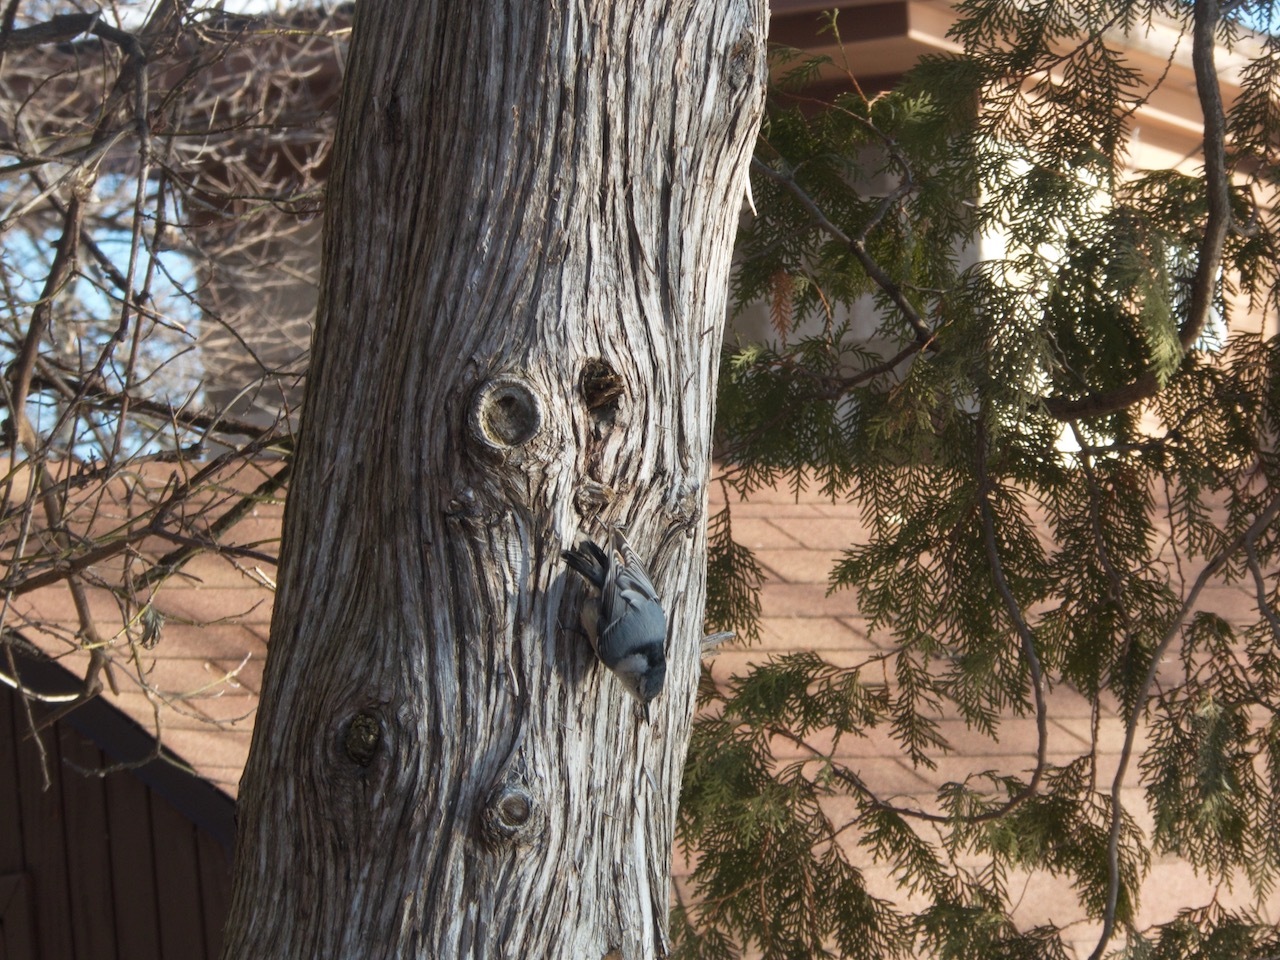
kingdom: Animalia
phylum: Chordata
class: Aves
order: Passeriformes
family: Sittidae
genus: Sitta
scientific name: Sitta carolinensis
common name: White-breasted nuthatch
